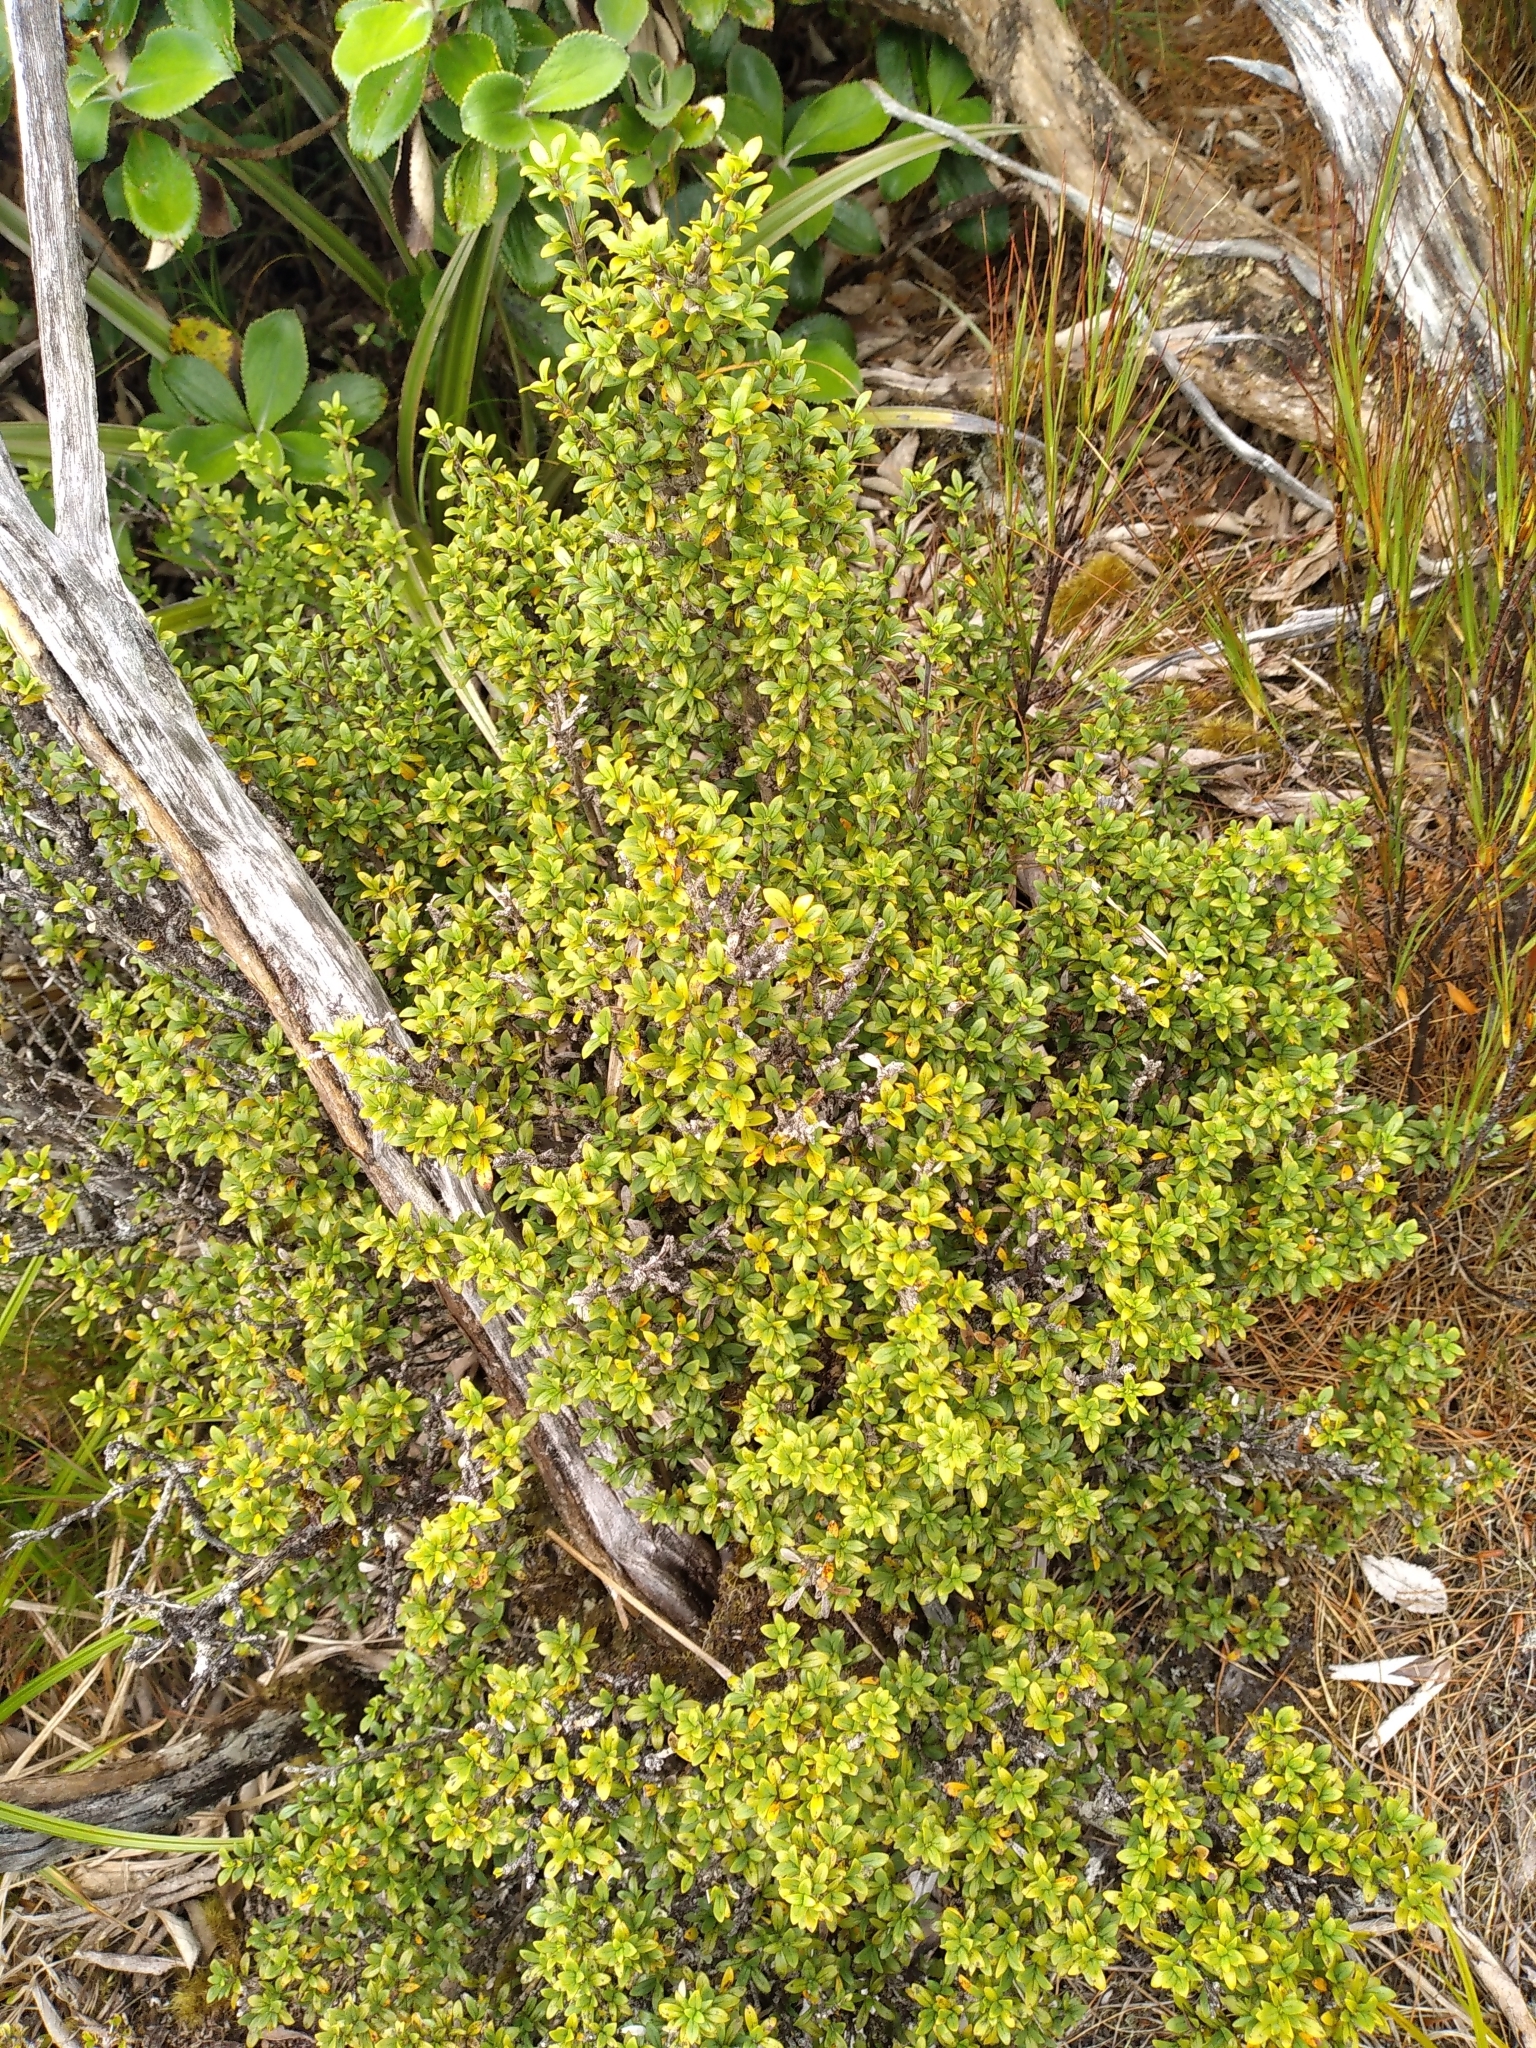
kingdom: Plantae
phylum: Tracheophyta
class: Magnoliopsida
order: Gentianales
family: Rubiaceae
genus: Coprosma
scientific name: Coprosma pseudocuneata
